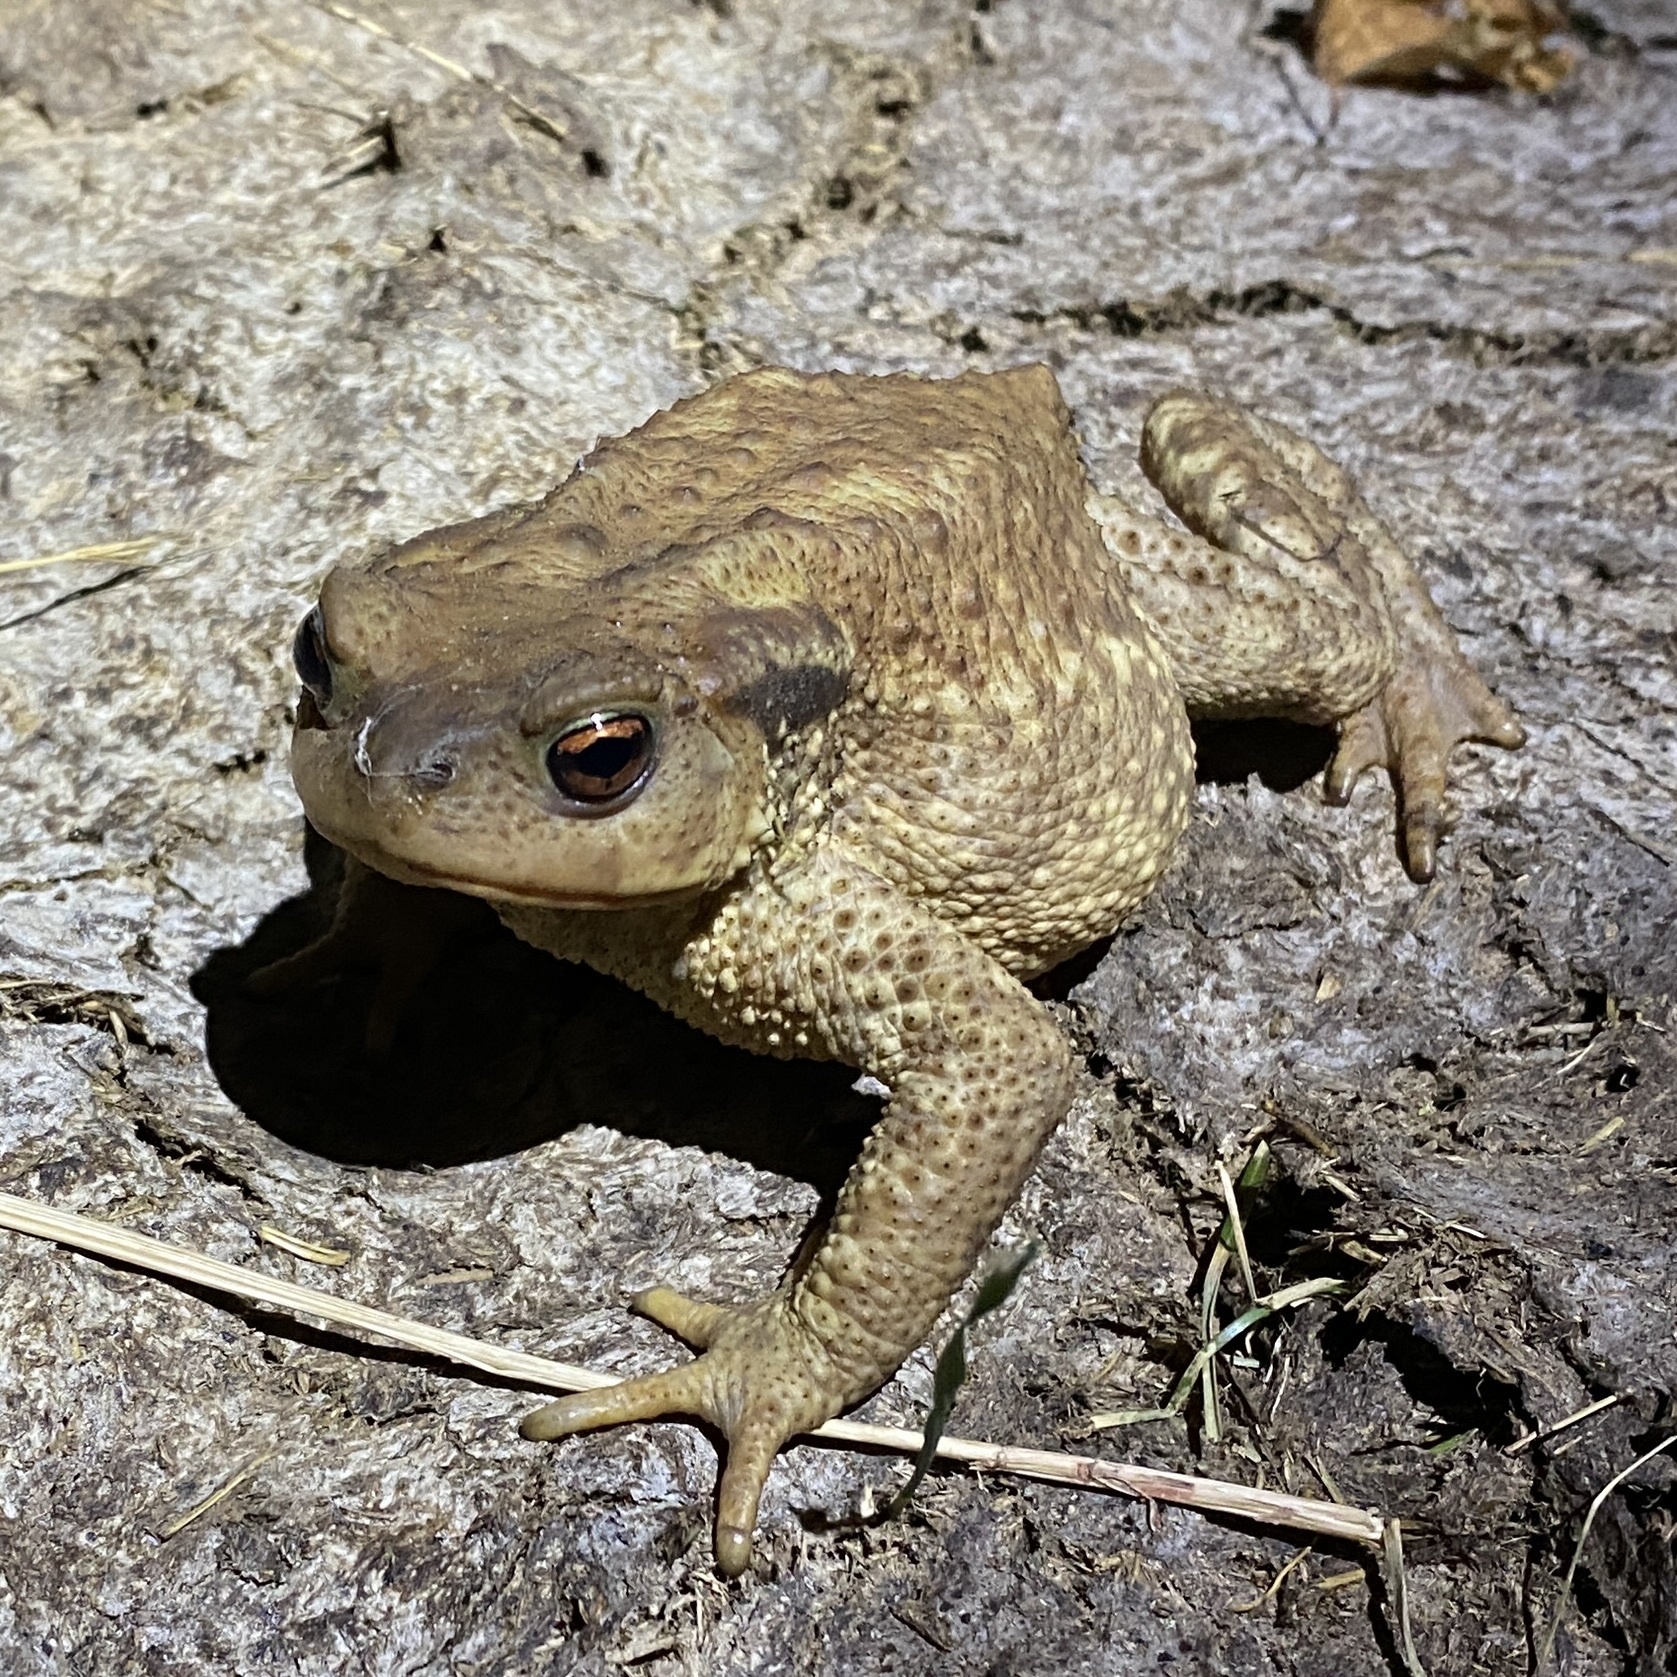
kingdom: Animalia
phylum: Chordata
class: Amphibia
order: Anura
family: Bufonidae
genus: Bufo
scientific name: Bufo spinosus
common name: Western common toad
